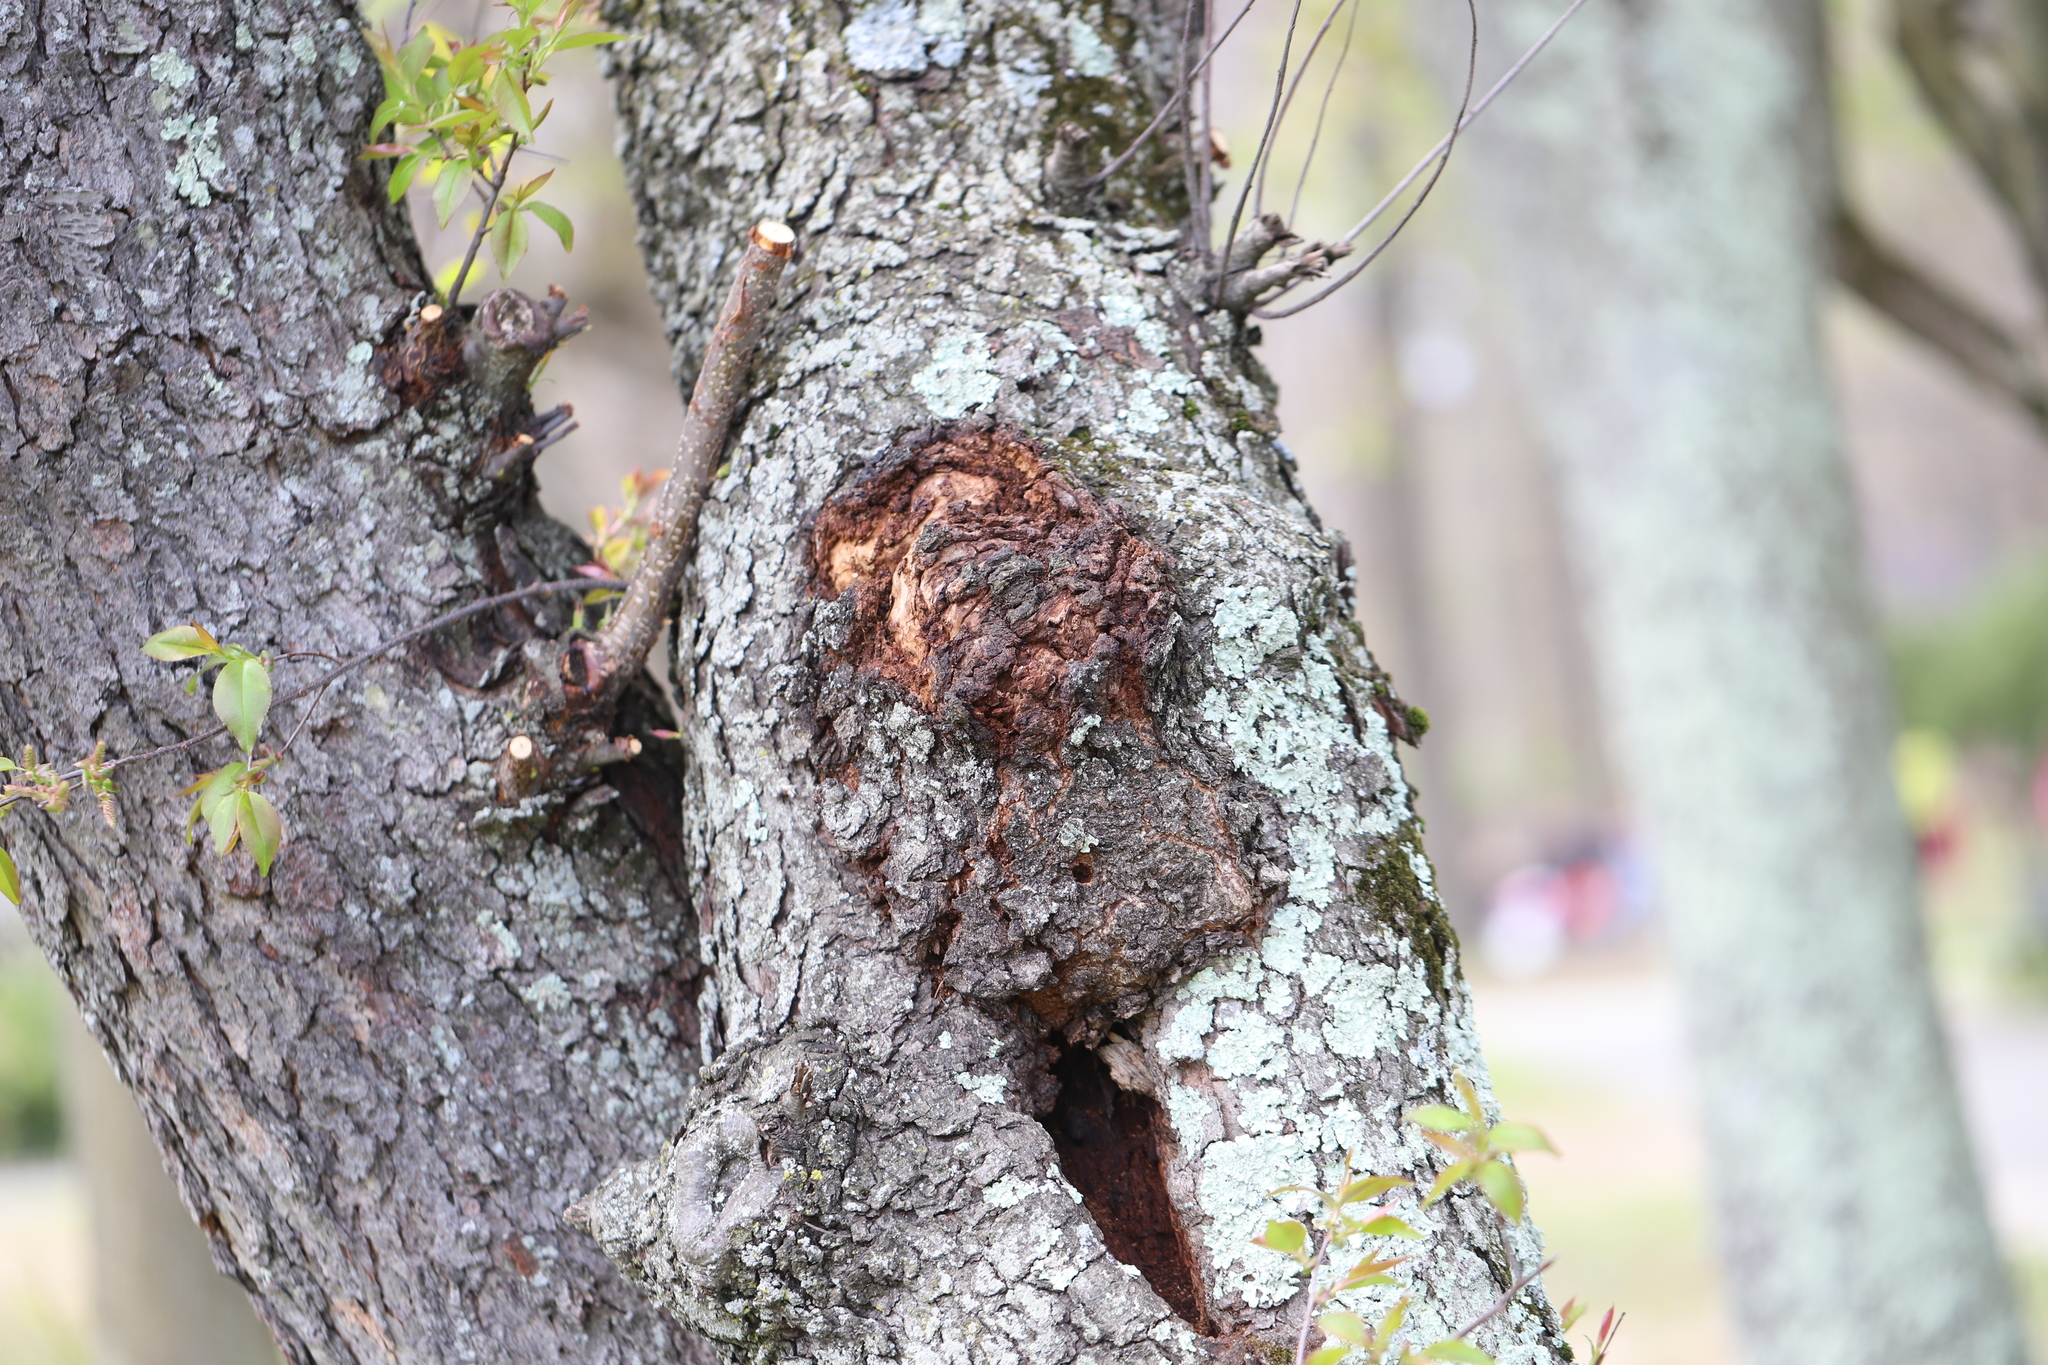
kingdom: Bacteria
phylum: Proteobacteria
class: Alphaproteobacteria
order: Rhizobiales
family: Rhizobiaceae
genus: Rhizobium
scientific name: Rhizobium Agrobacterium radiobacter
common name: Bacterial crown gall
